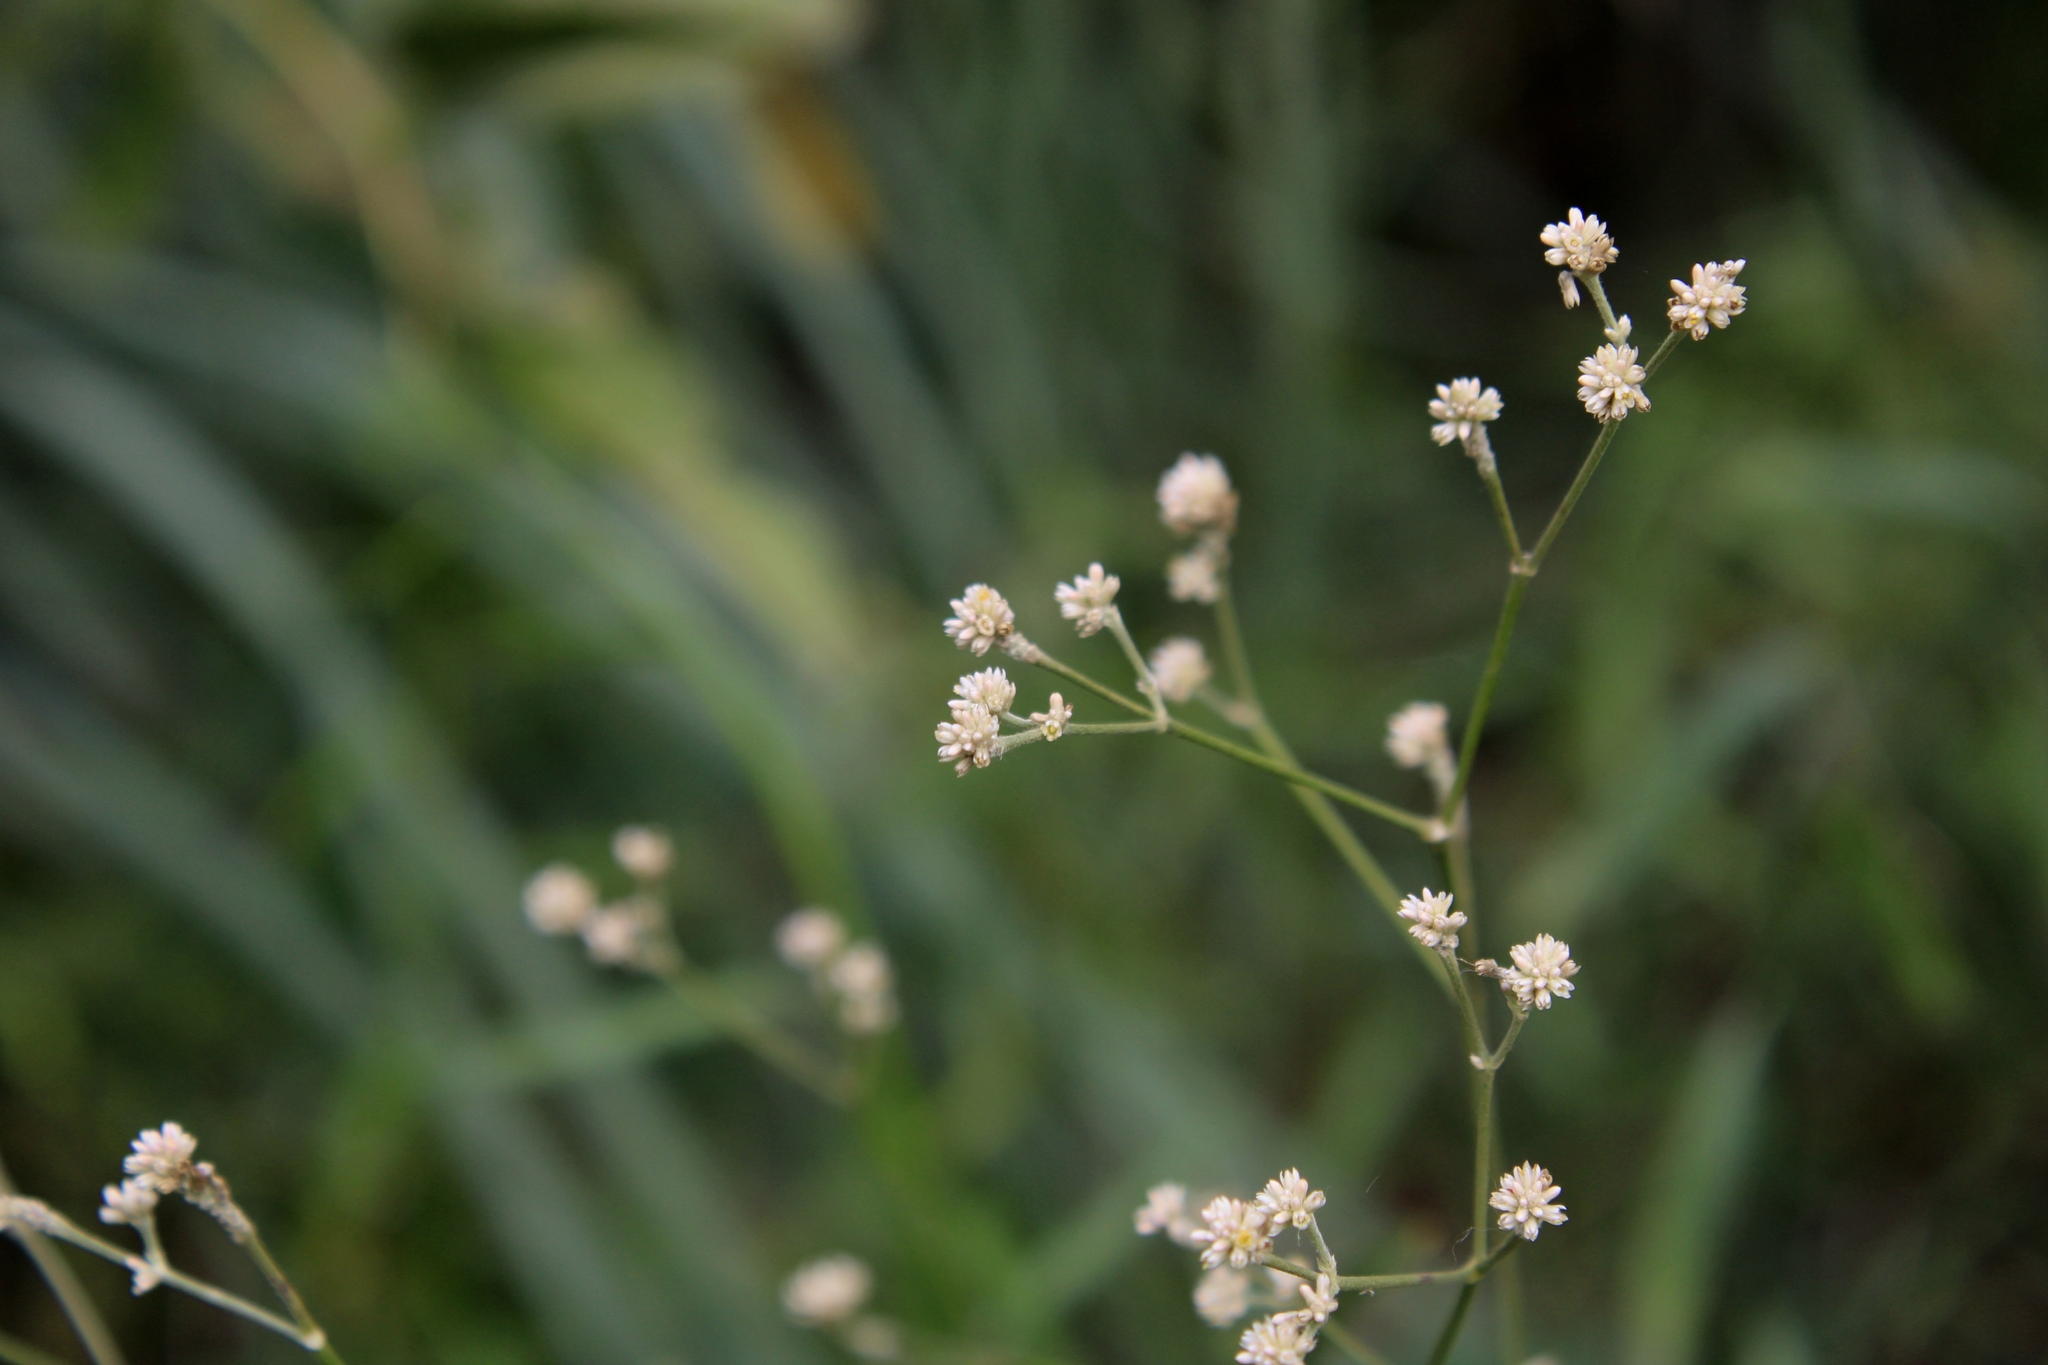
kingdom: Plantae
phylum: Tracheophyta
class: Magnoliopsida
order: Caryophyllales
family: Amaranthaceae
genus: Pfaffia
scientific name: Pfaffia glomerata
